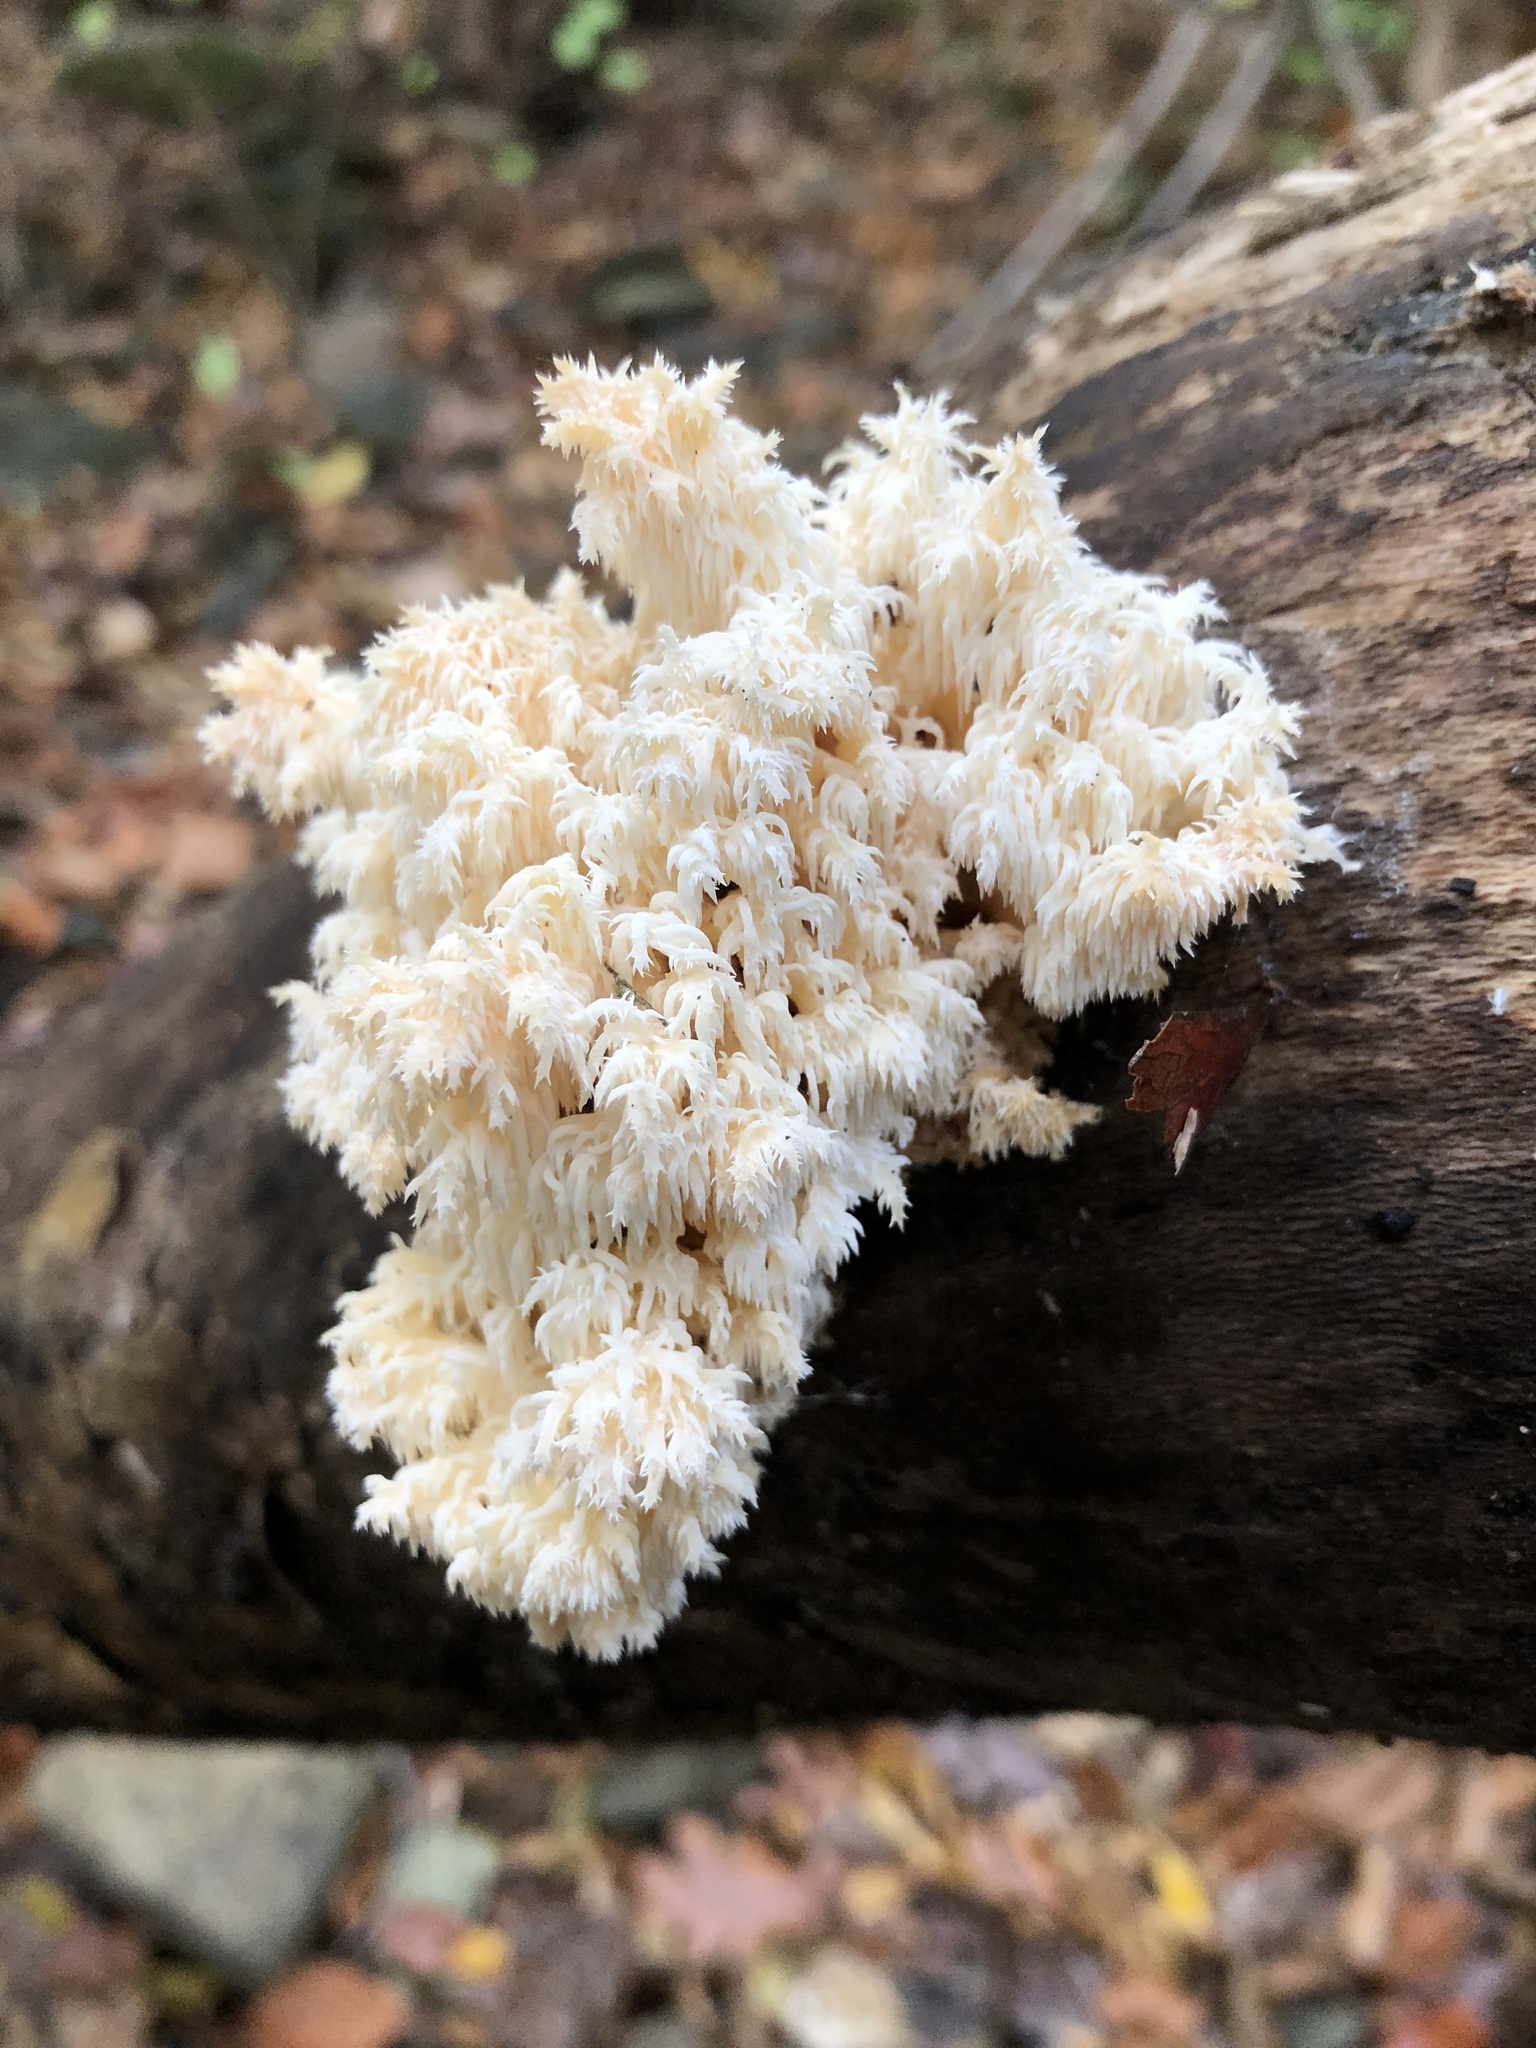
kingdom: Fungi
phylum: Basidiomycota
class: Agaricomycetes
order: Russulales
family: Hericiaceae
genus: Hericium
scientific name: Hericium coralloides
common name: Coral tooth
